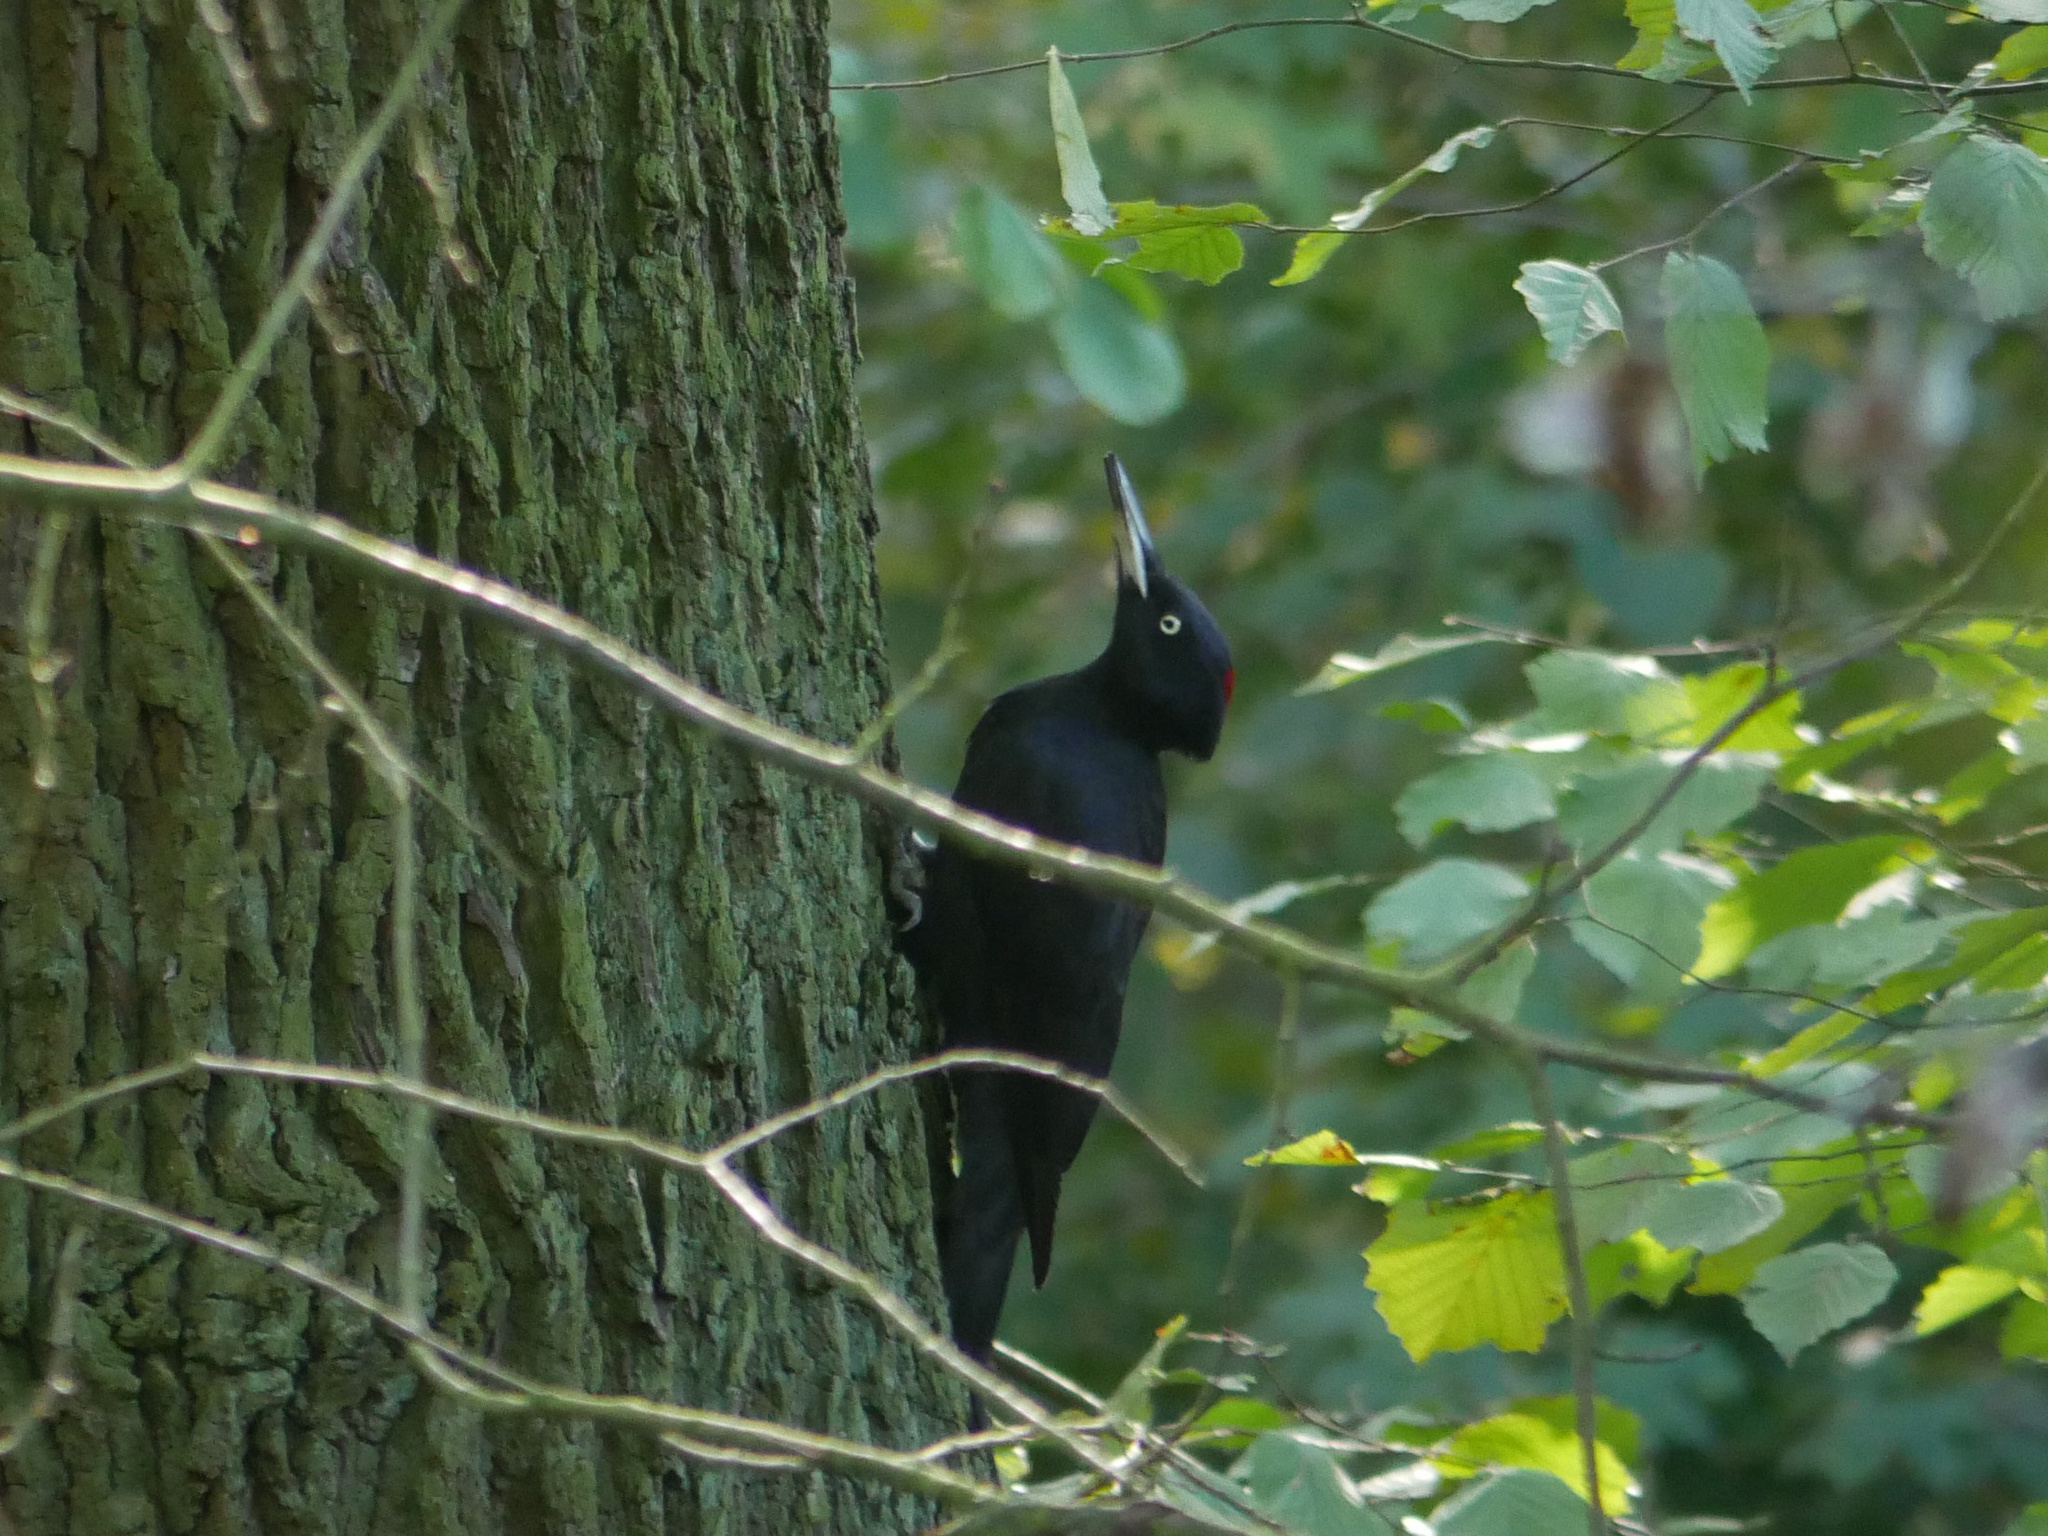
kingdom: Animalia
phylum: Chordata
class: Aves
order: Piciformes
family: Picidae
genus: Dryocopus
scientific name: Dryocopus martius
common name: Black woodpecker
